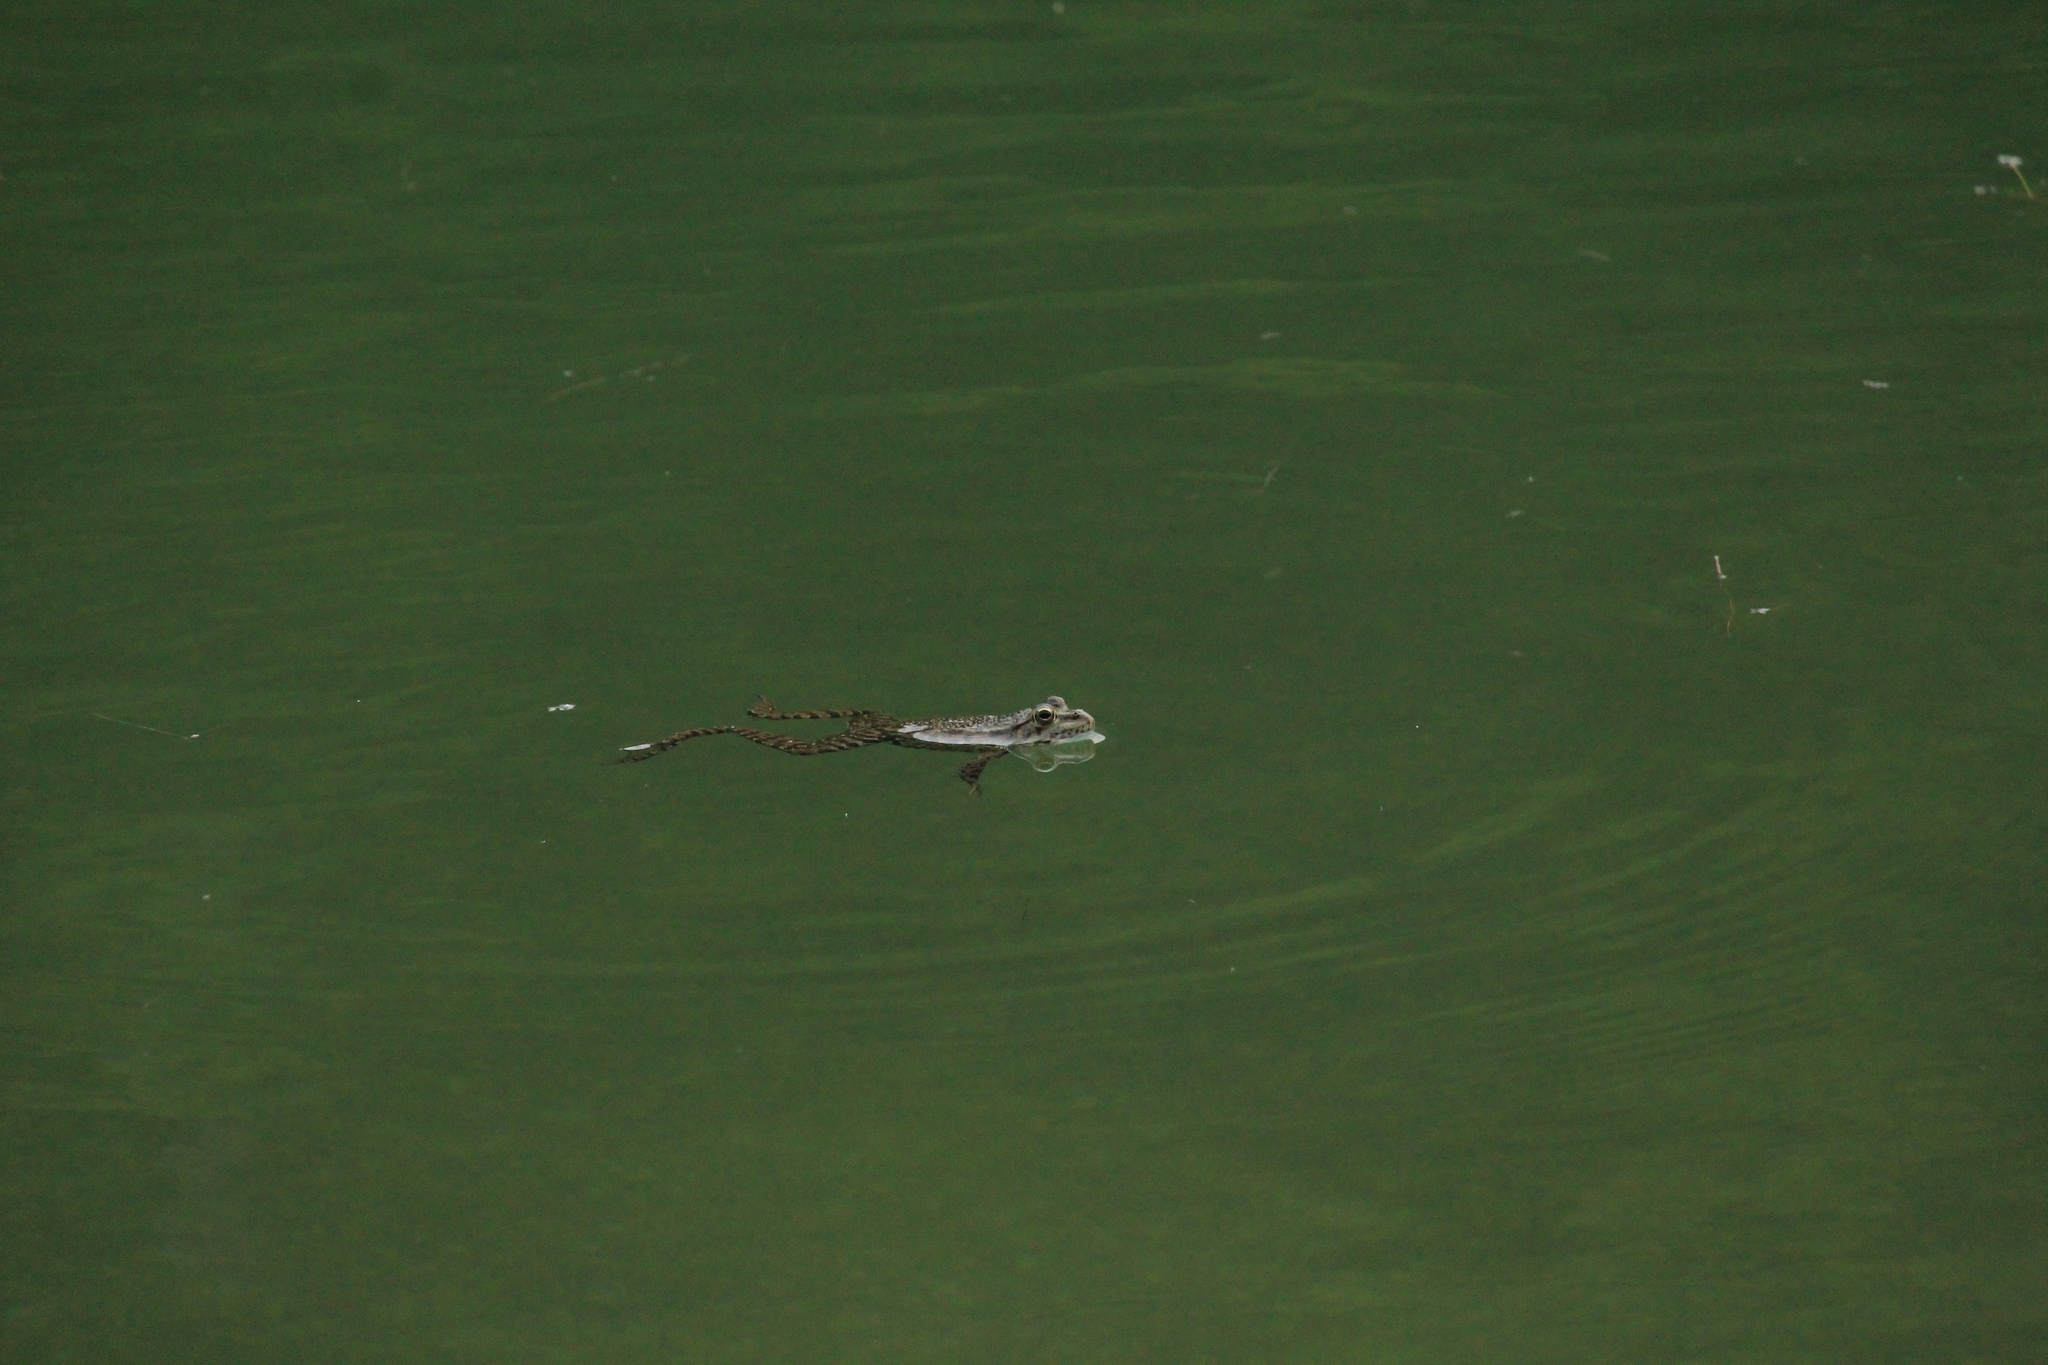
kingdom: Animalia
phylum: Chordata
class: Amphibia
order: Anura
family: Ranidae
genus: Pelophylax
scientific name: Pelophylax ridibundus
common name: Marsh frog
